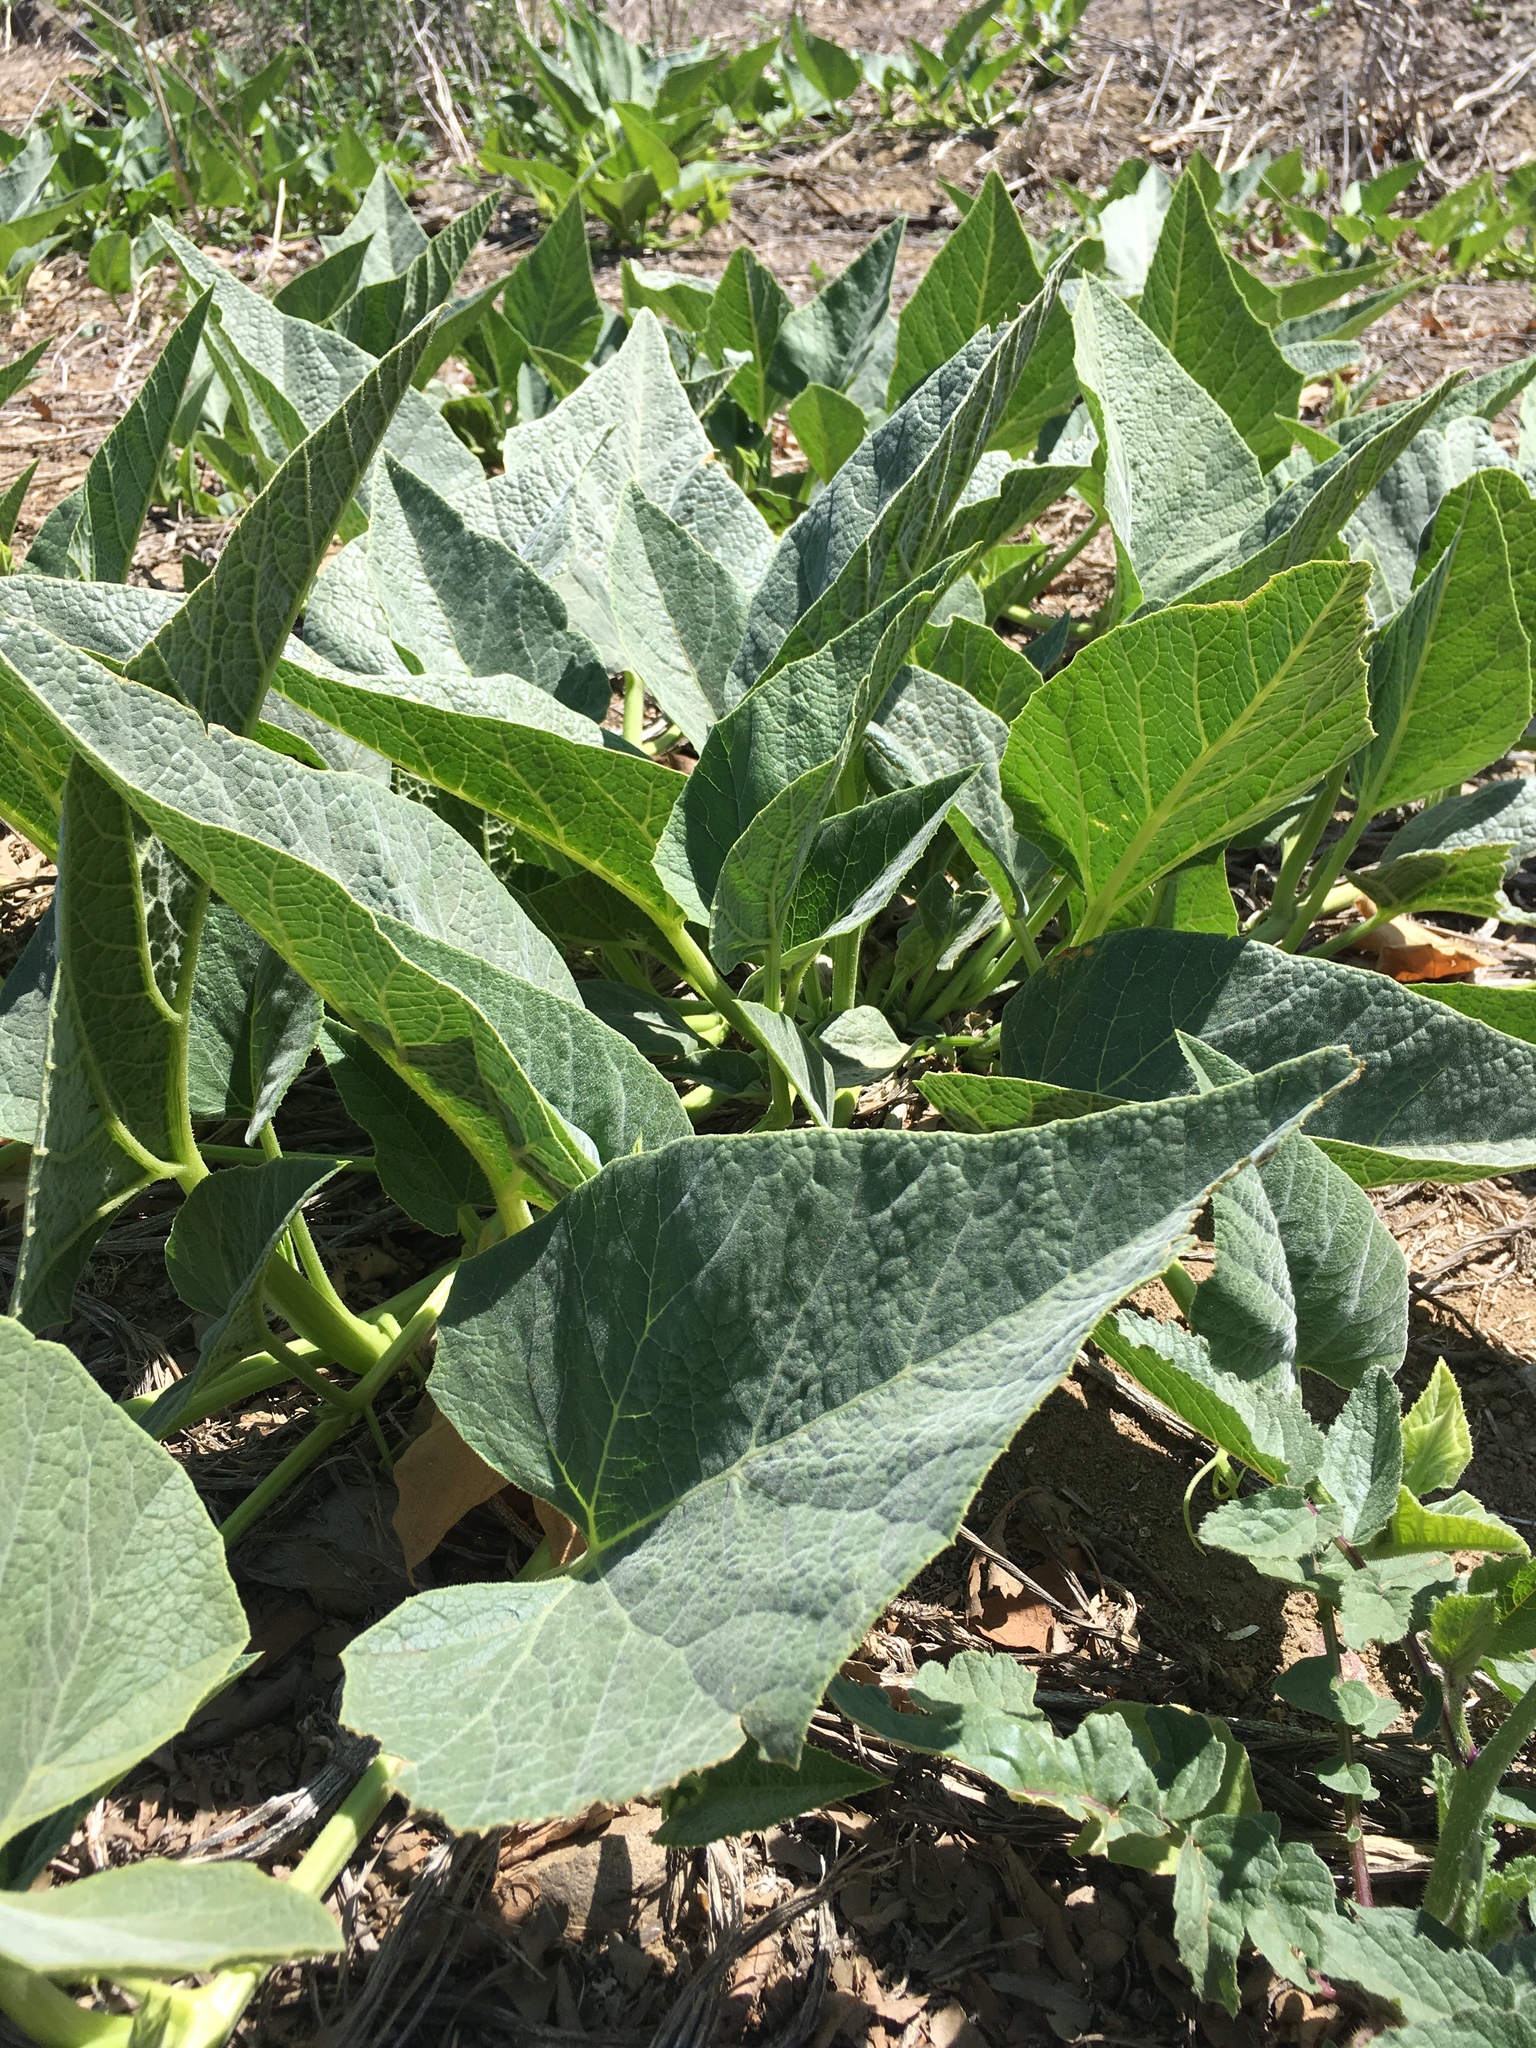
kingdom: Plantae
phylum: Tracheophyta
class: Magnoliopsida
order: Cucurbitales
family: Cucurbitaceae
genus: Cucurbita
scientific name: Cucurbita foetidissima
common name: Buffalo gourd
